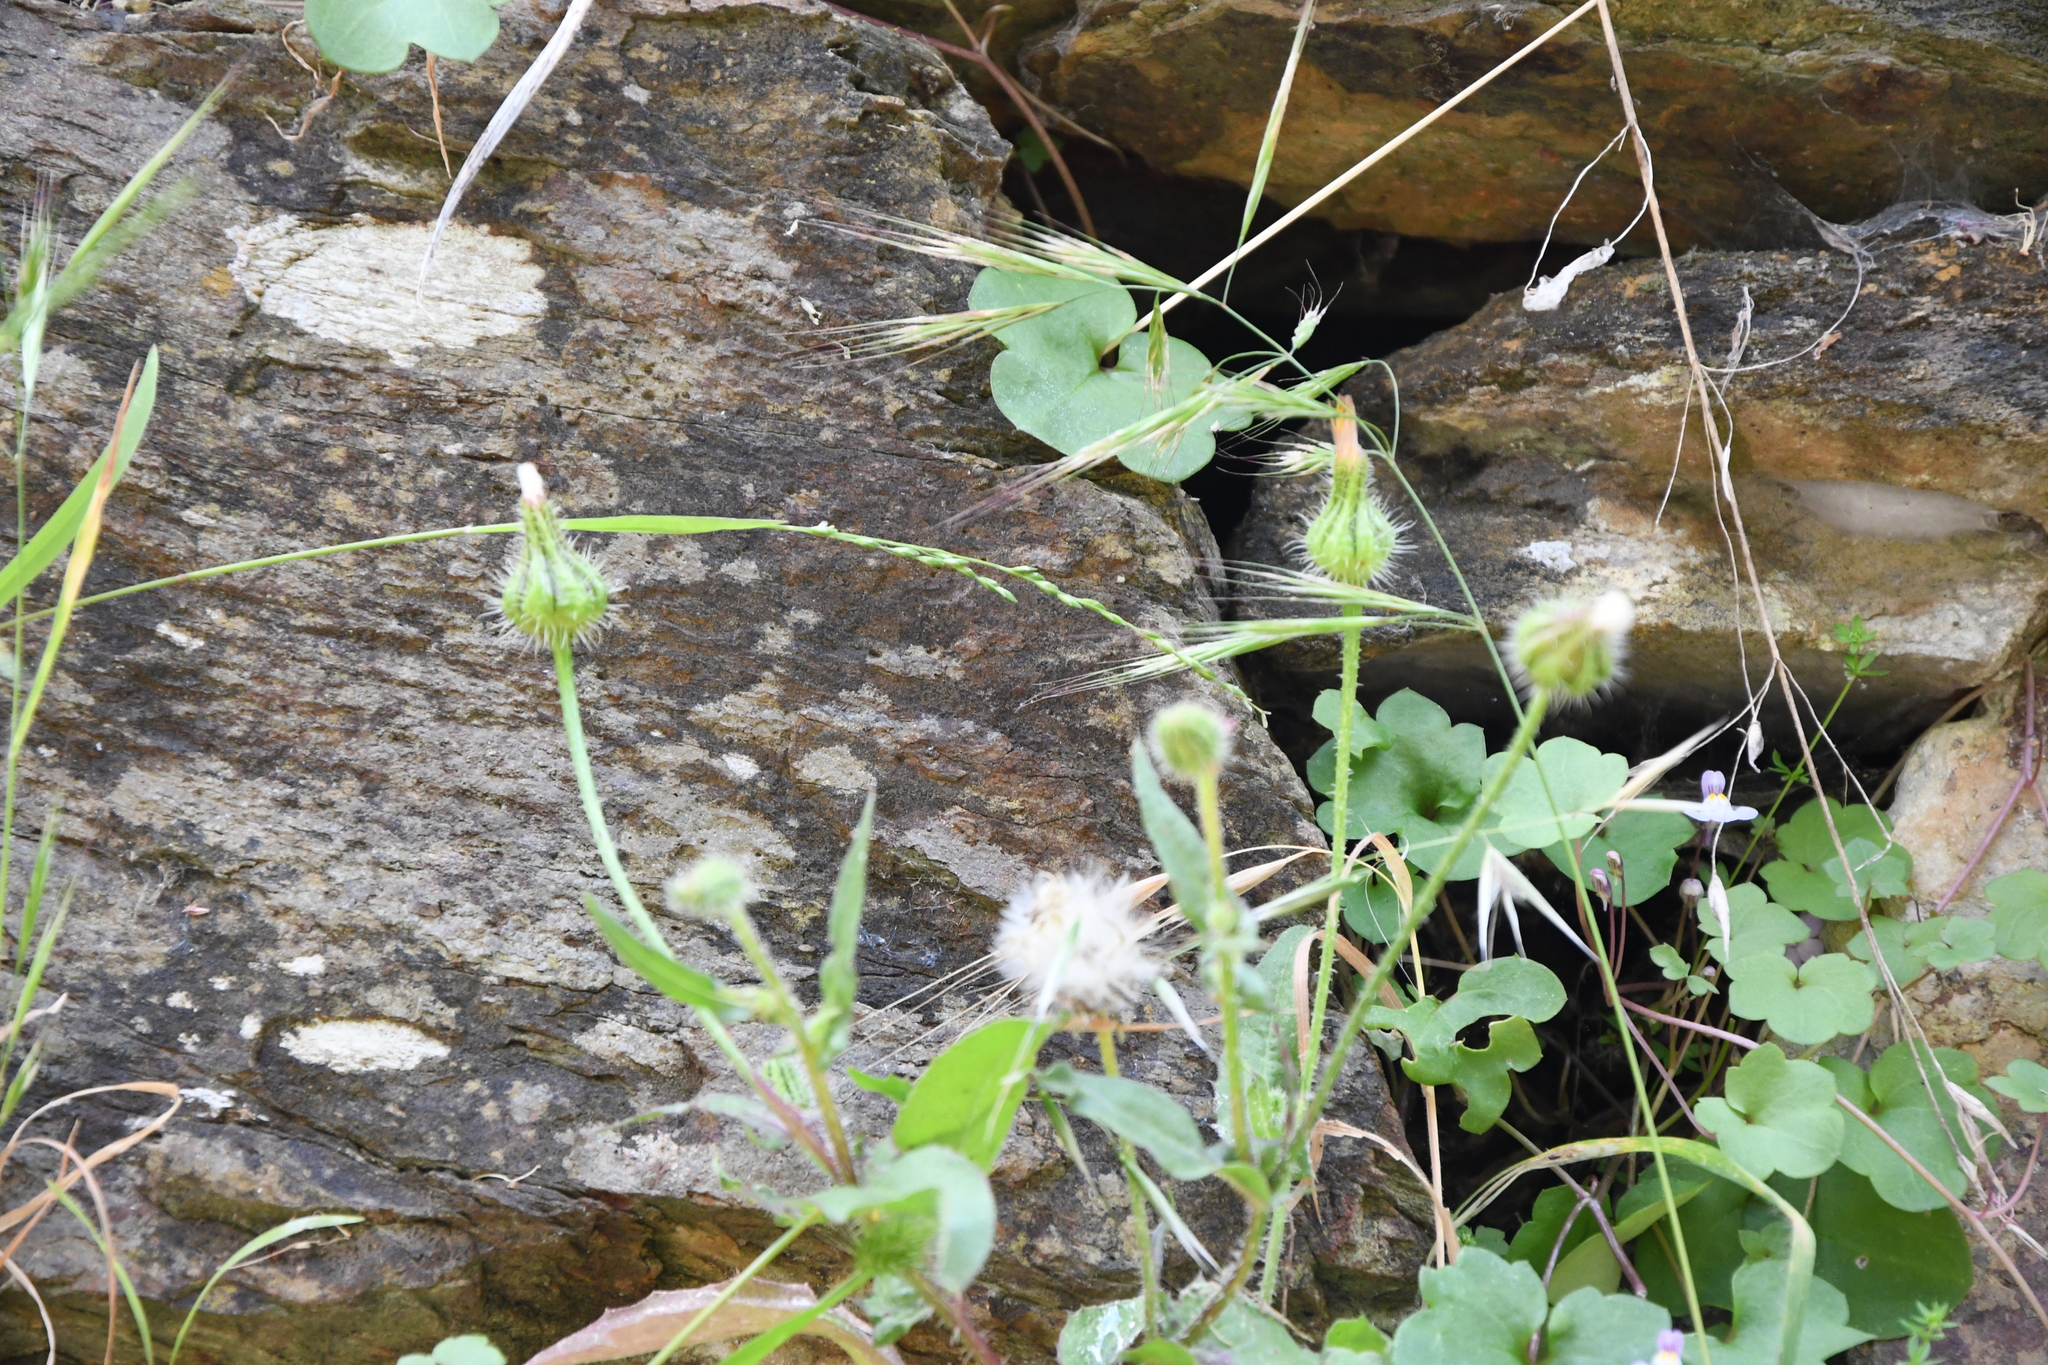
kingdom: Plantae
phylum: Tracheophyta
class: Magnoliopsida
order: Asterales
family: Asteraceae
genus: Urospermum
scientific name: Urospermum picroides
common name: False hawkbit
